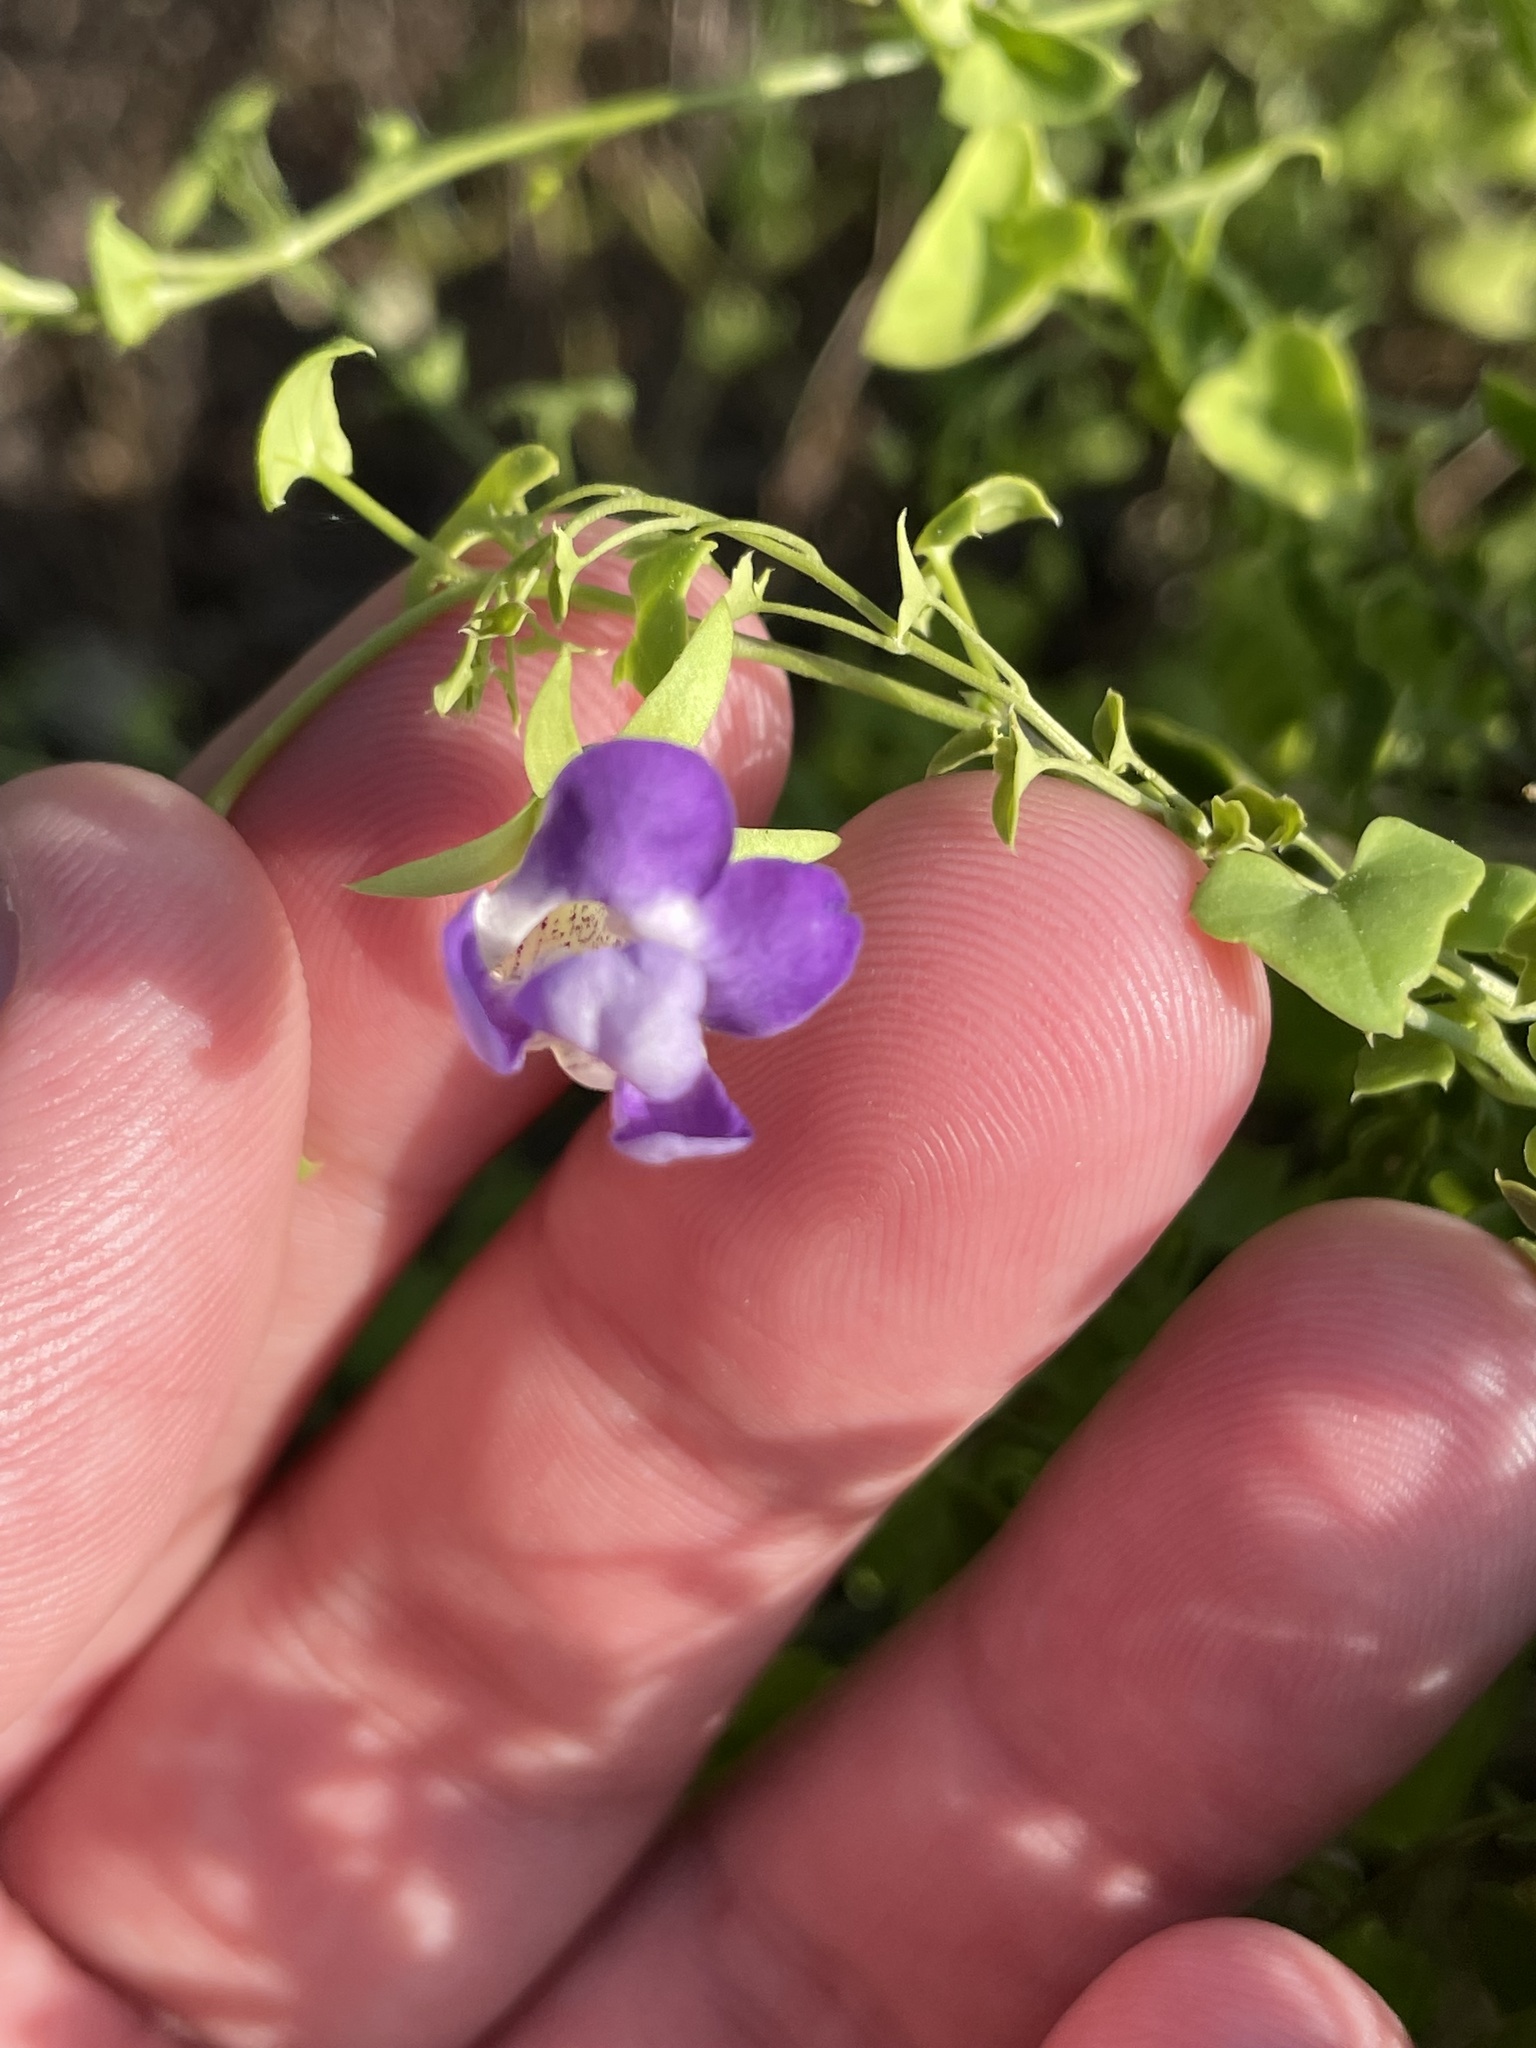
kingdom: Plantae
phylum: Tracheophyta
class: Magnoliopsida
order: Lamiales
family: Plantaginaceae
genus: Maurandella
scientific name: Maurandella antirrhiniflora
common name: Violet twining-snapdragon
